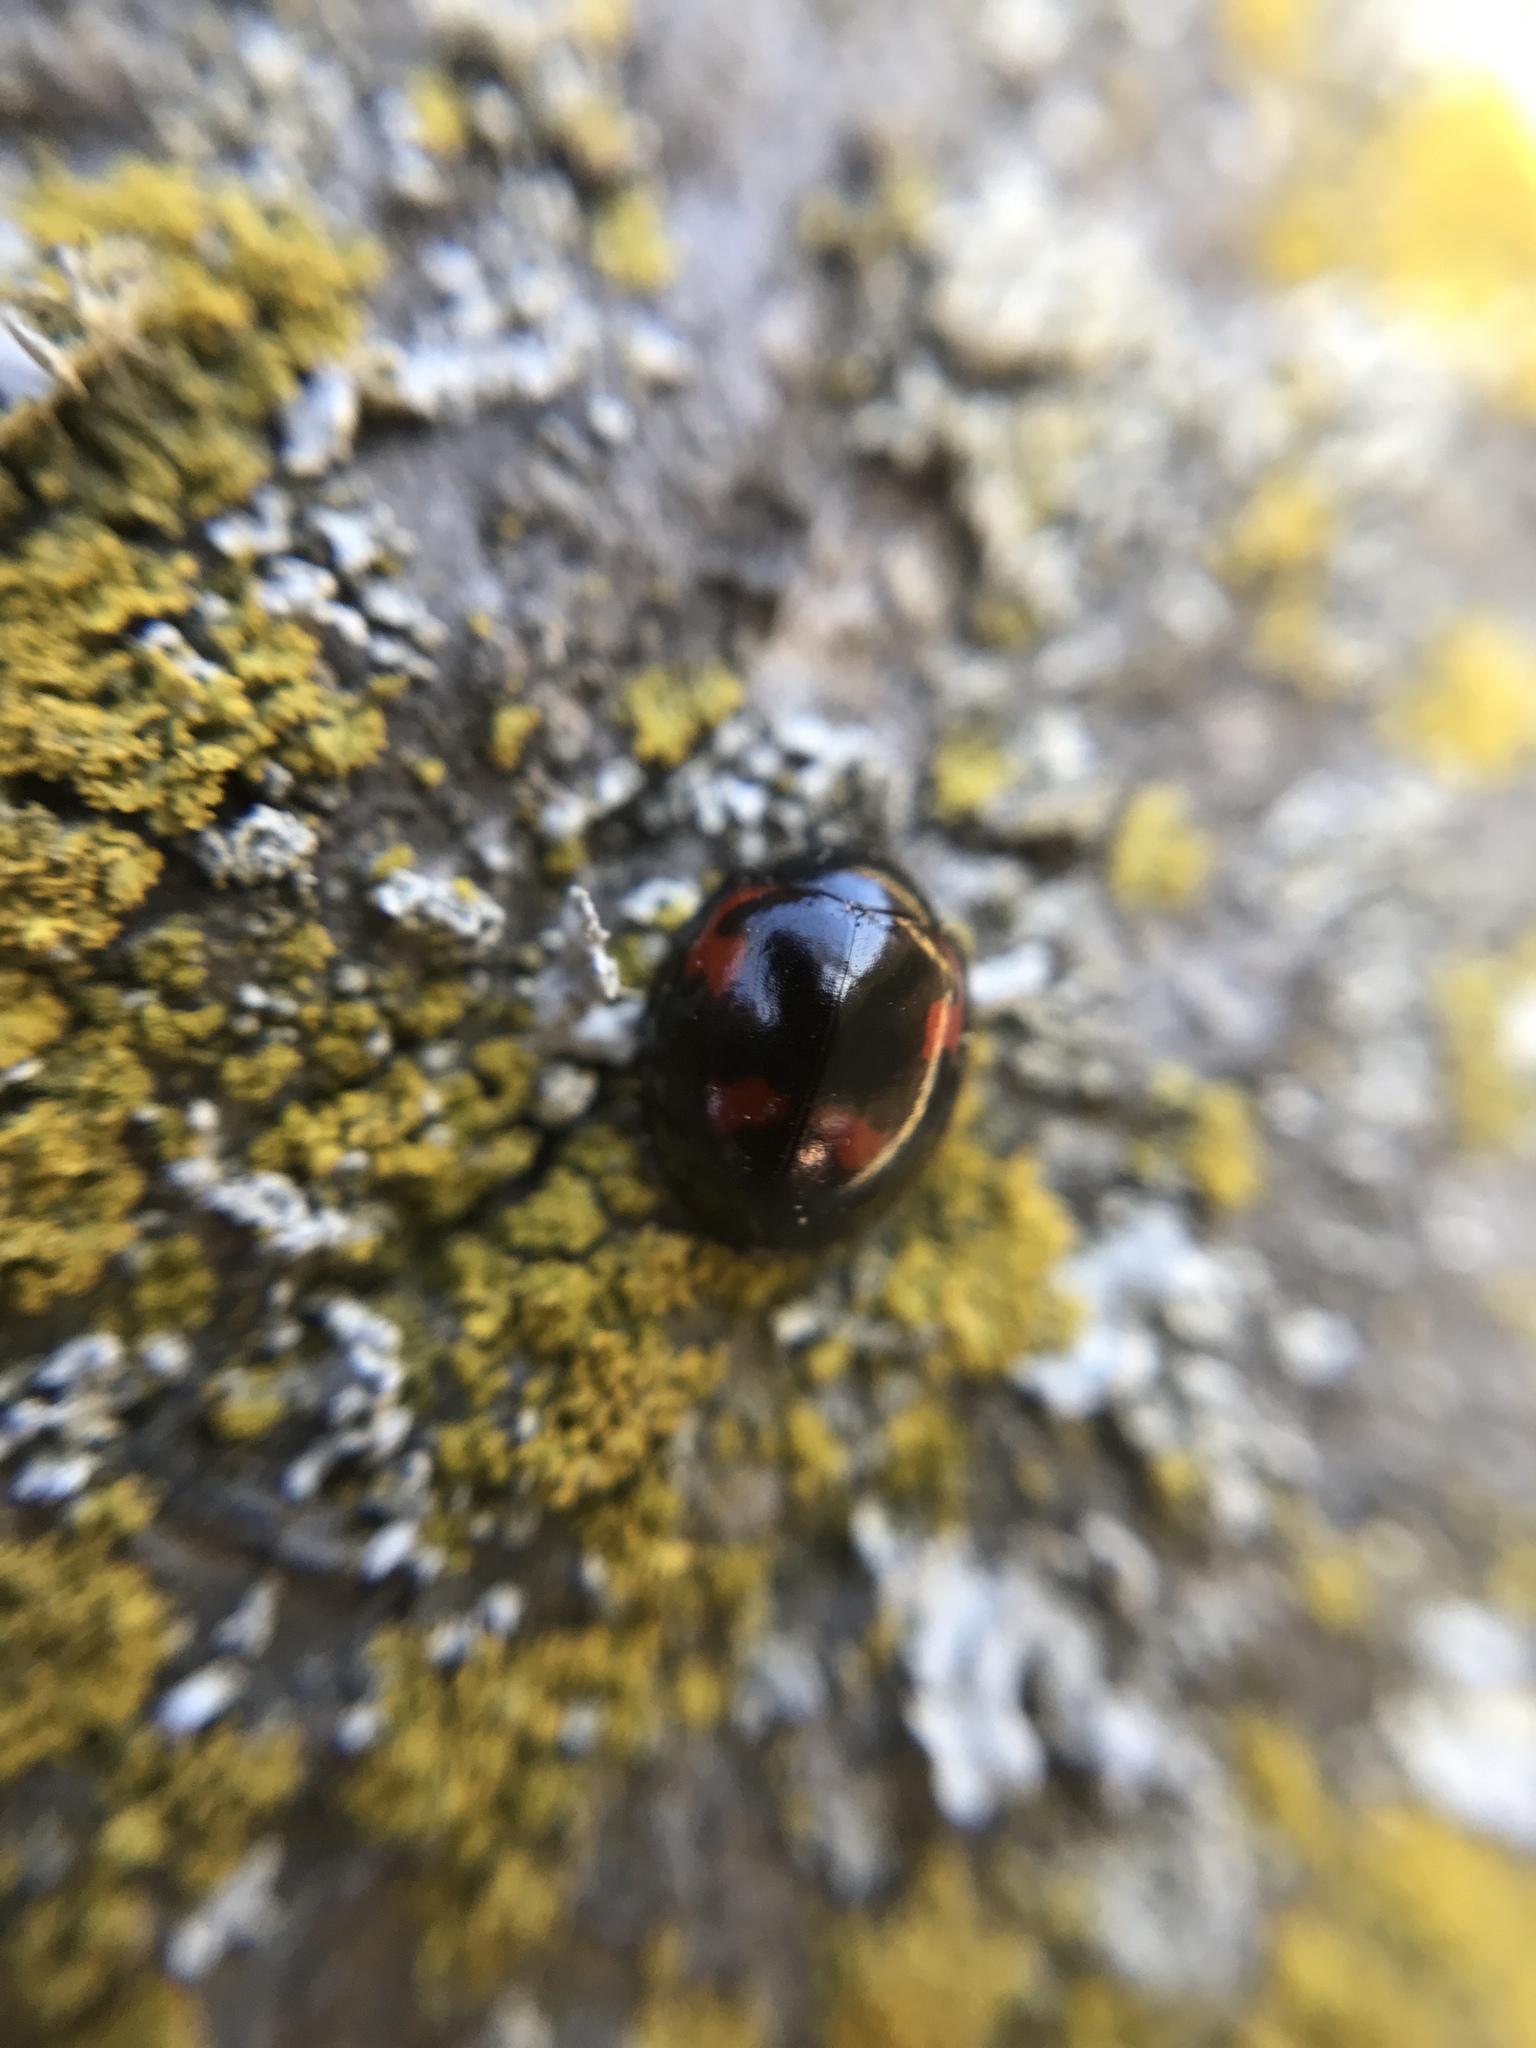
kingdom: Animalia
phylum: Arthropoda
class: Insecta
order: Coleoptera
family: Coccinellidae
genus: Brumus
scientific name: Brumus quadripustulatus
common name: Ladybird beetle
